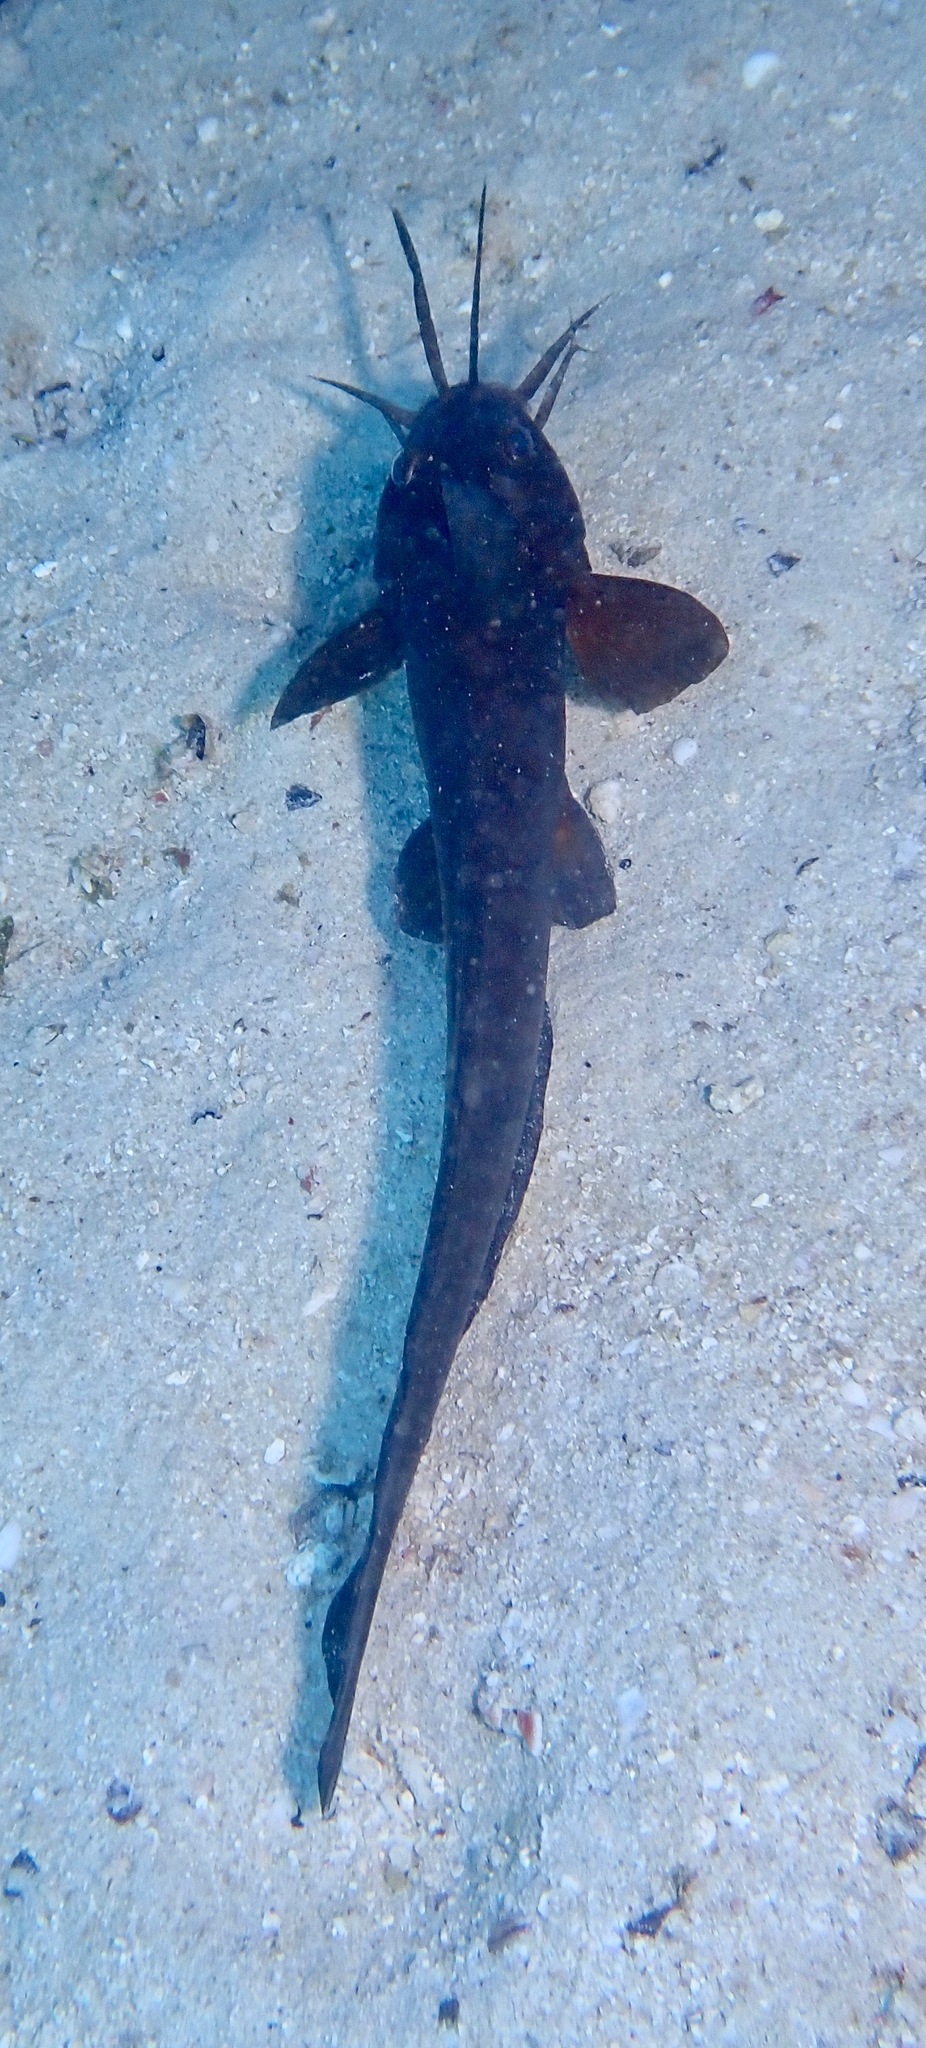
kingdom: Animalia
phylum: Chordata
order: Siluriformes
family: Plotosidae
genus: Paraplotosus
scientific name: Paraplotosus butleri
